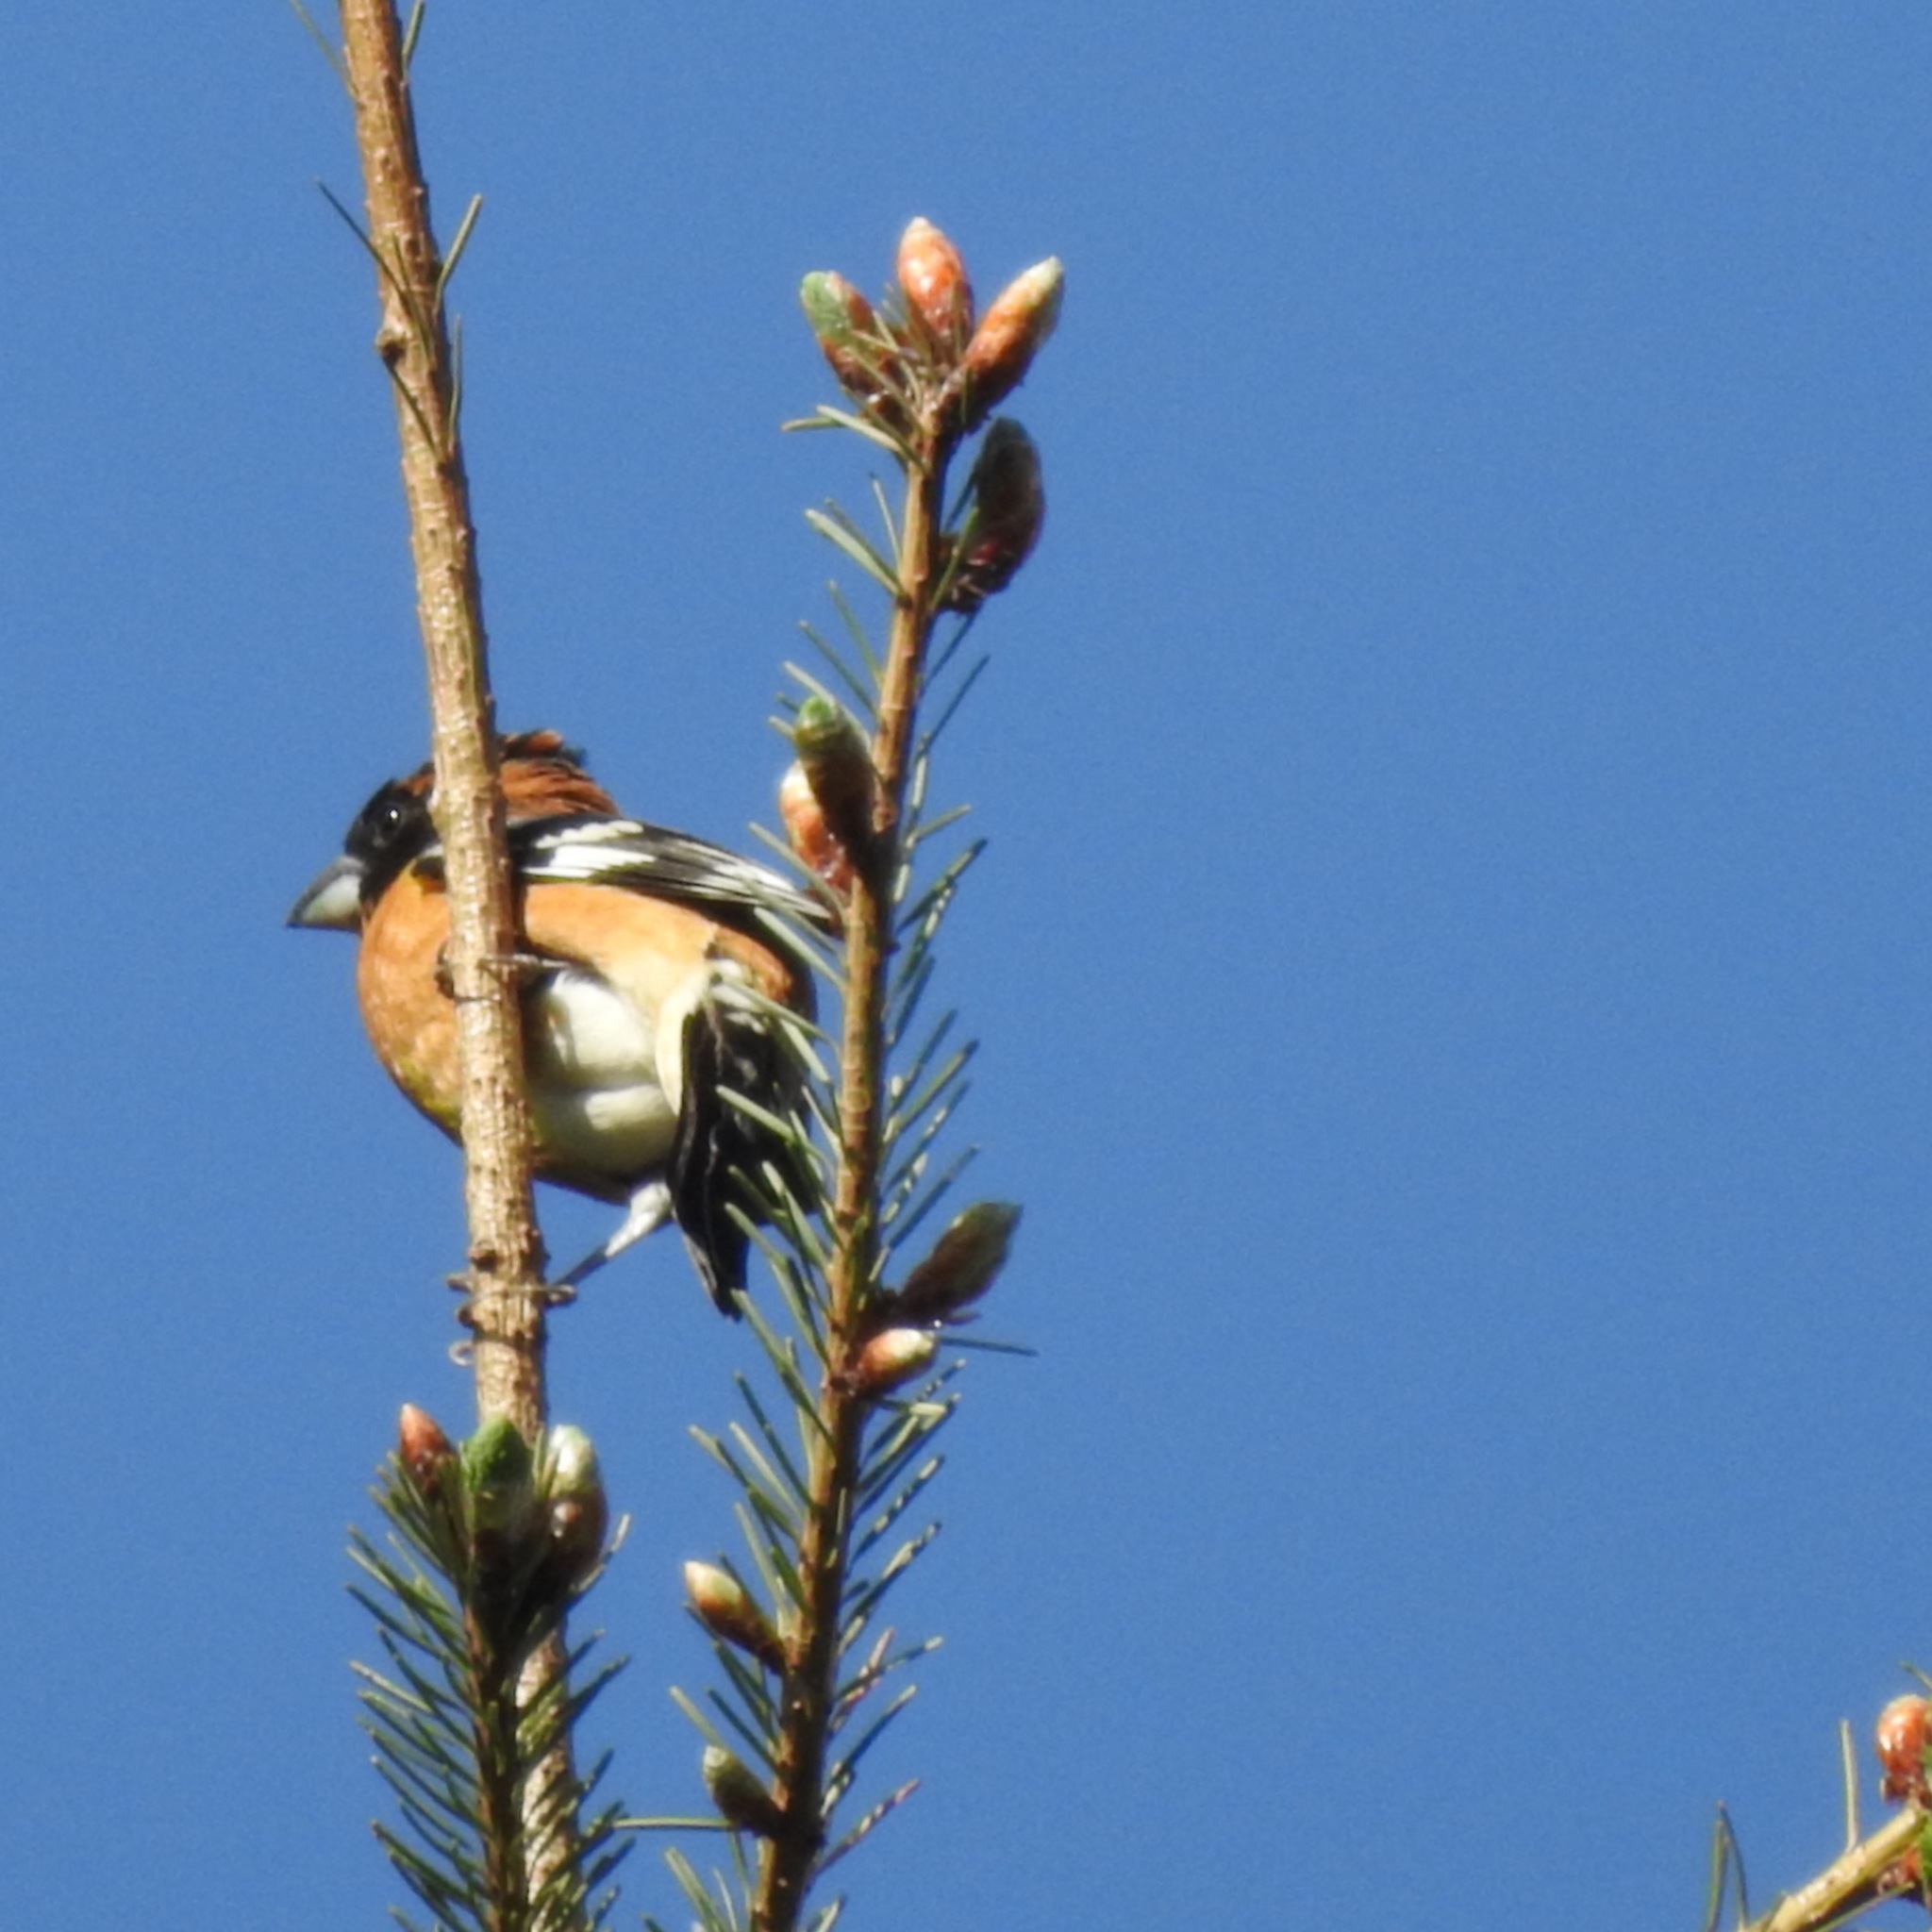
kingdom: Animalia
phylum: Chordata
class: Aves
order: Passeriformes
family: Cardinalidae
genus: Pheucticus
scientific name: Pheucticus melanocephalus
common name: Black-headed grosbeak
